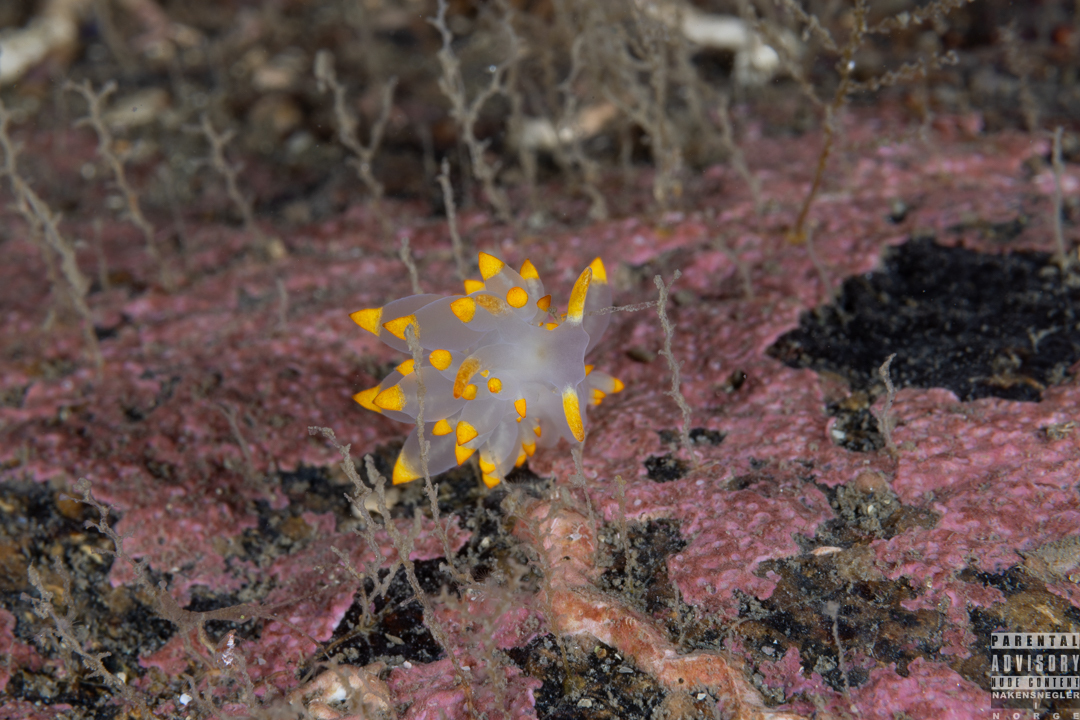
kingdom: Animalia
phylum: Mollusca
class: Gastropoda
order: Nudibranchia
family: Eubranchidae
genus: Amphorina
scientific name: Amphorina farrani
